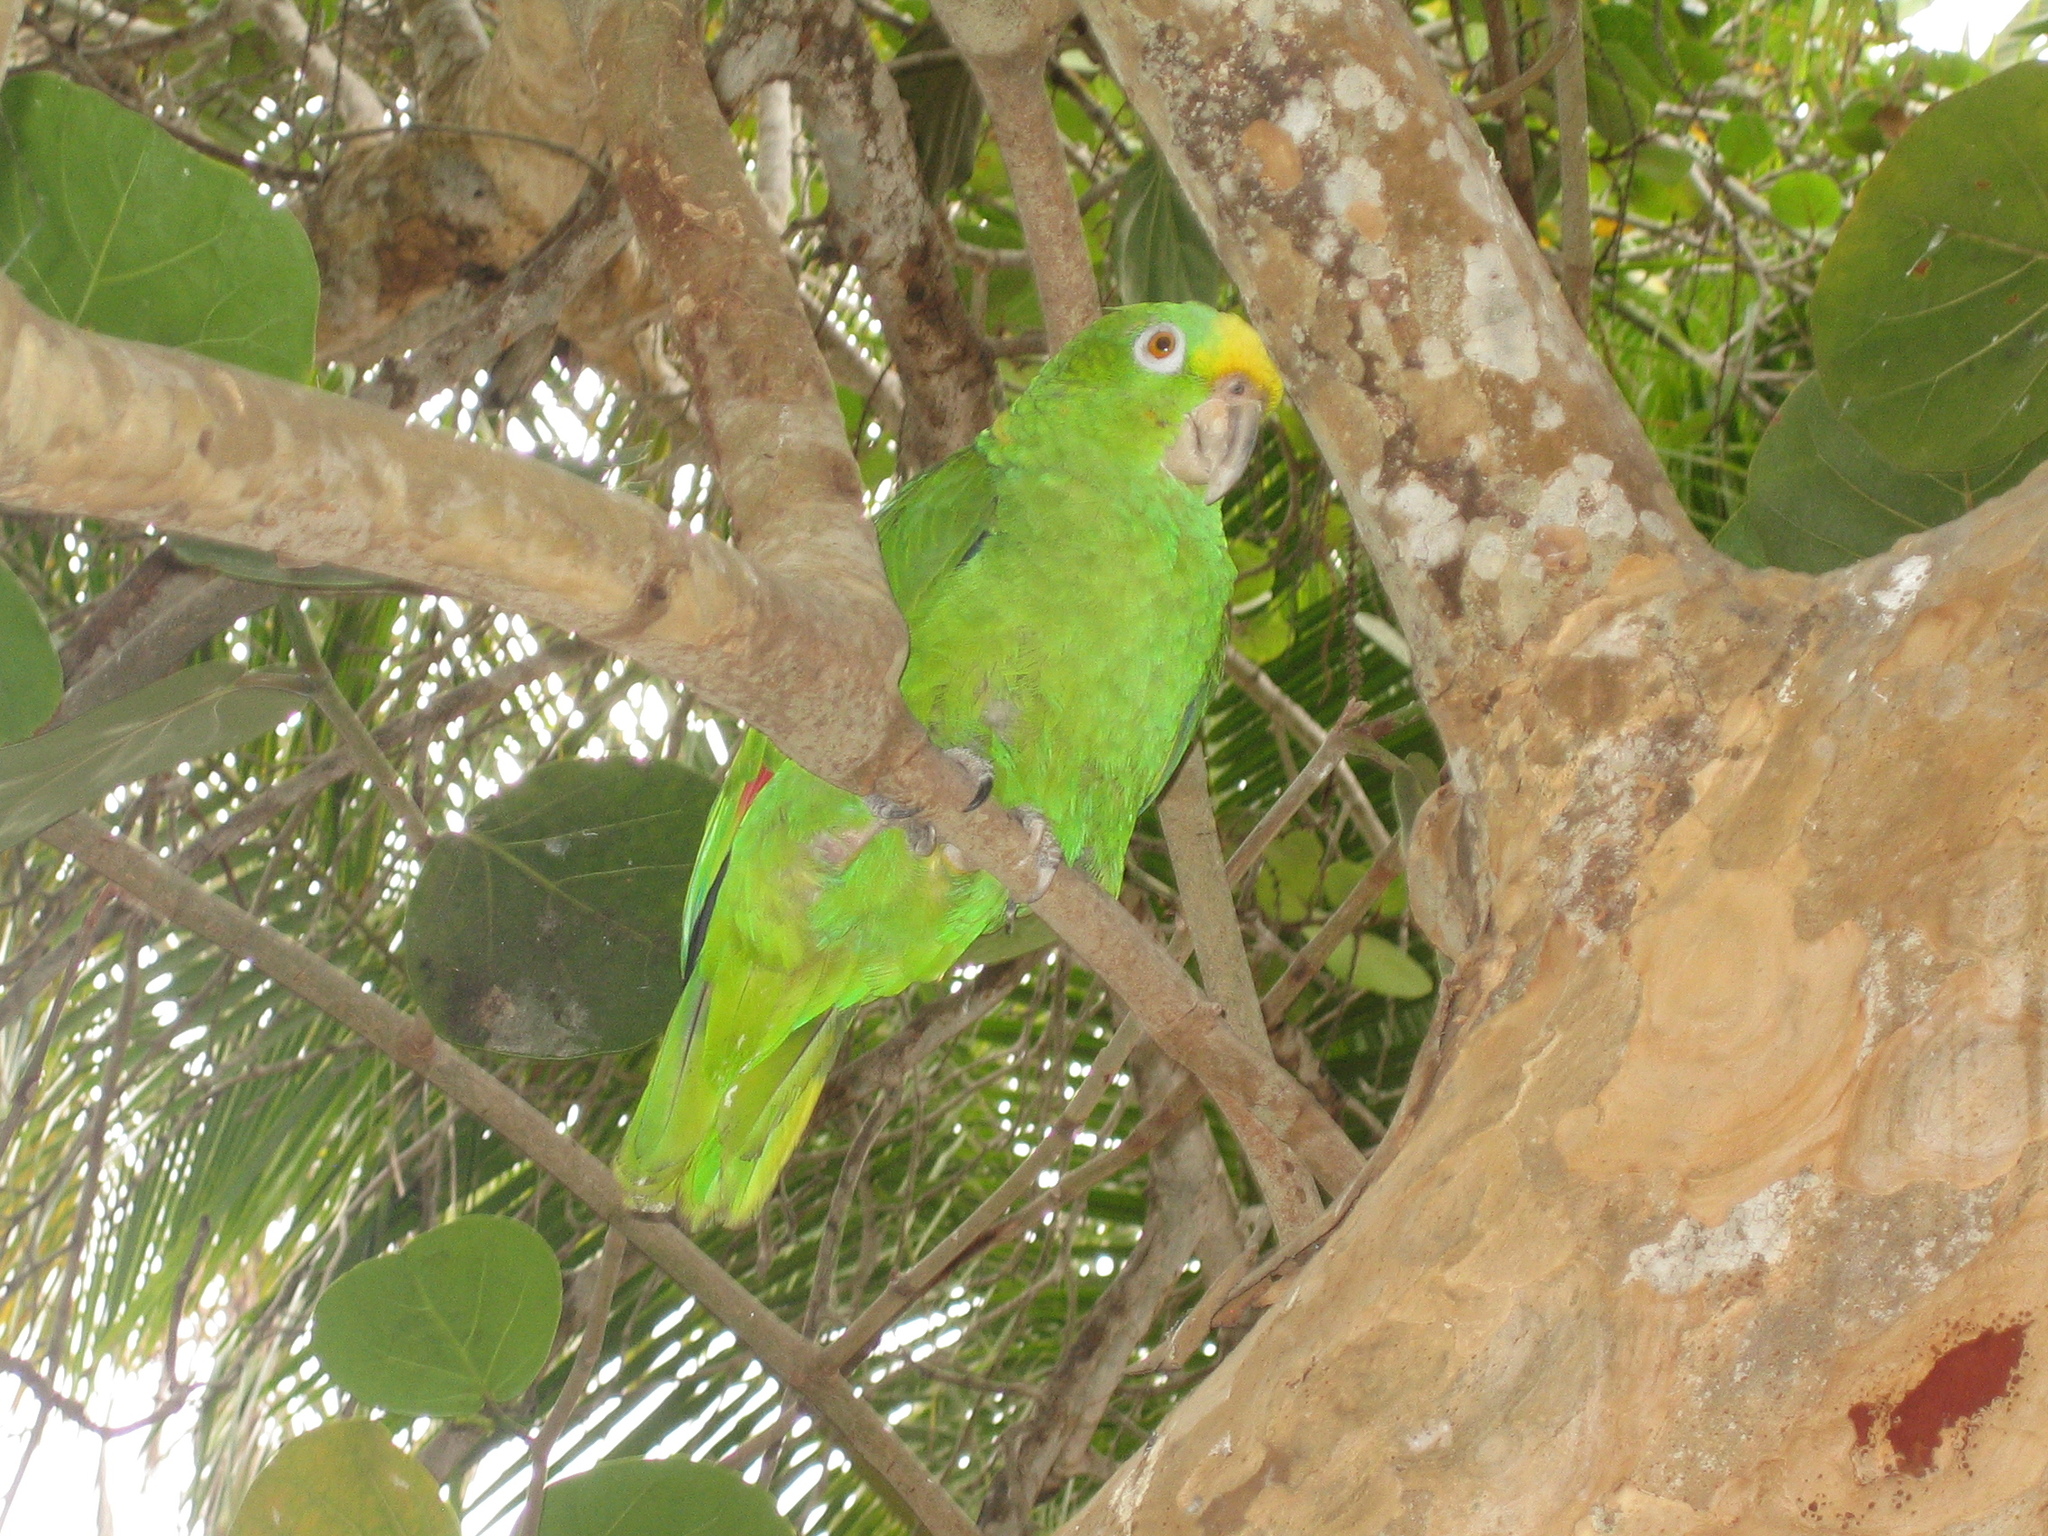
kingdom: Animalia
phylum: Chordata
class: Aves
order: Psittaciformes
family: Psittacidae
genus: Amazona
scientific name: Amazona ochrocephala
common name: Yellow-crowned amazon
